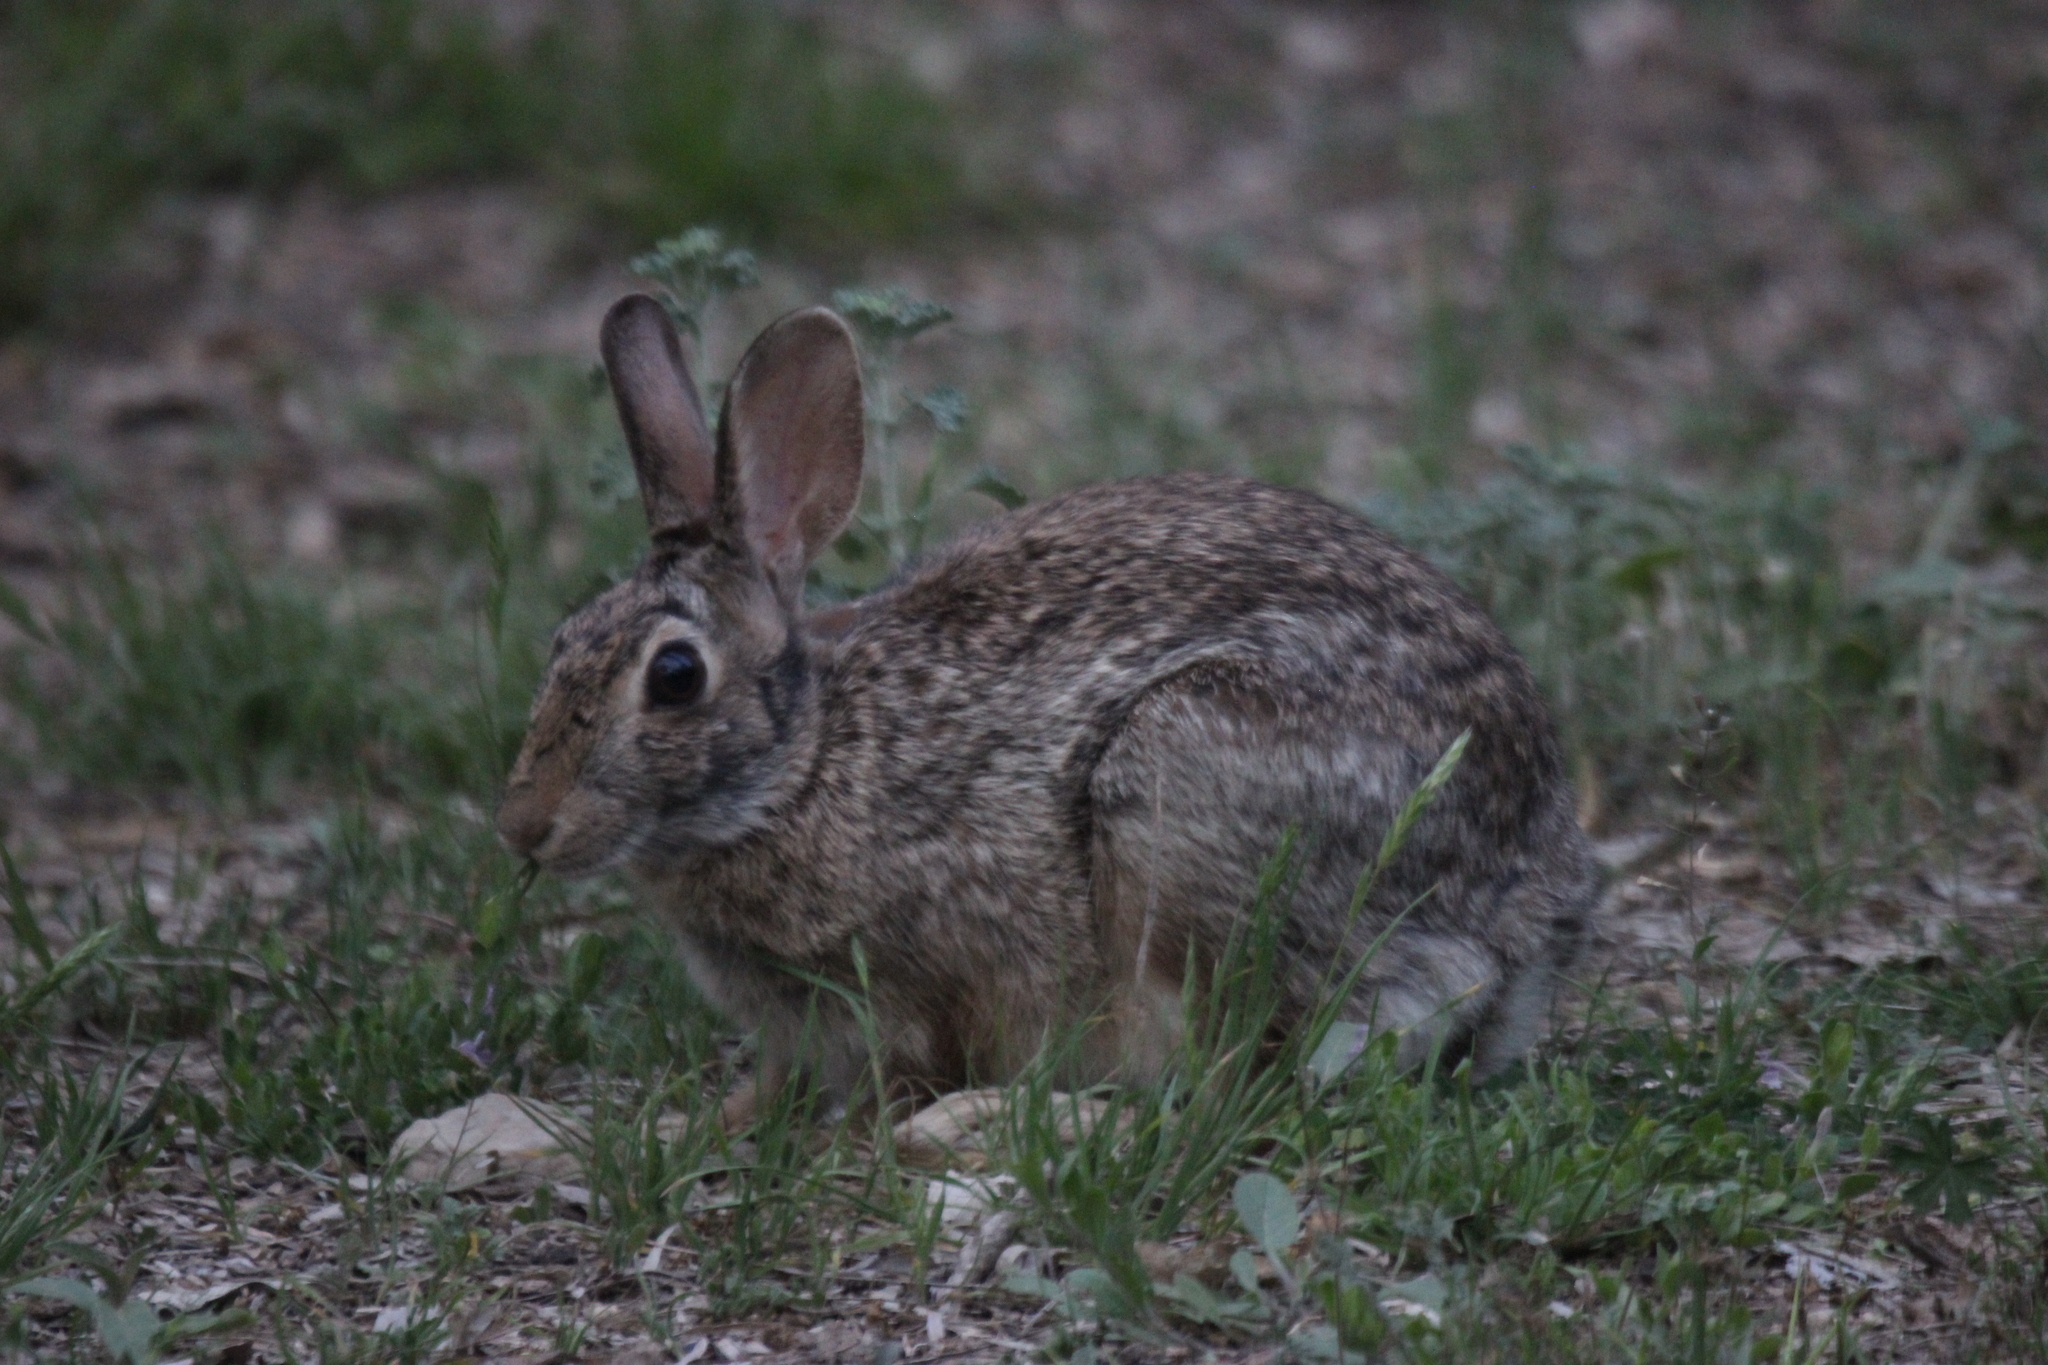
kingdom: Animalia
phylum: Chordata
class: Mammalia
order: Lagomorpha
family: Leporidae
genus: Sylvilagus
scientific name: Sylvilagus floridanus
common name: Eastern cottontail
